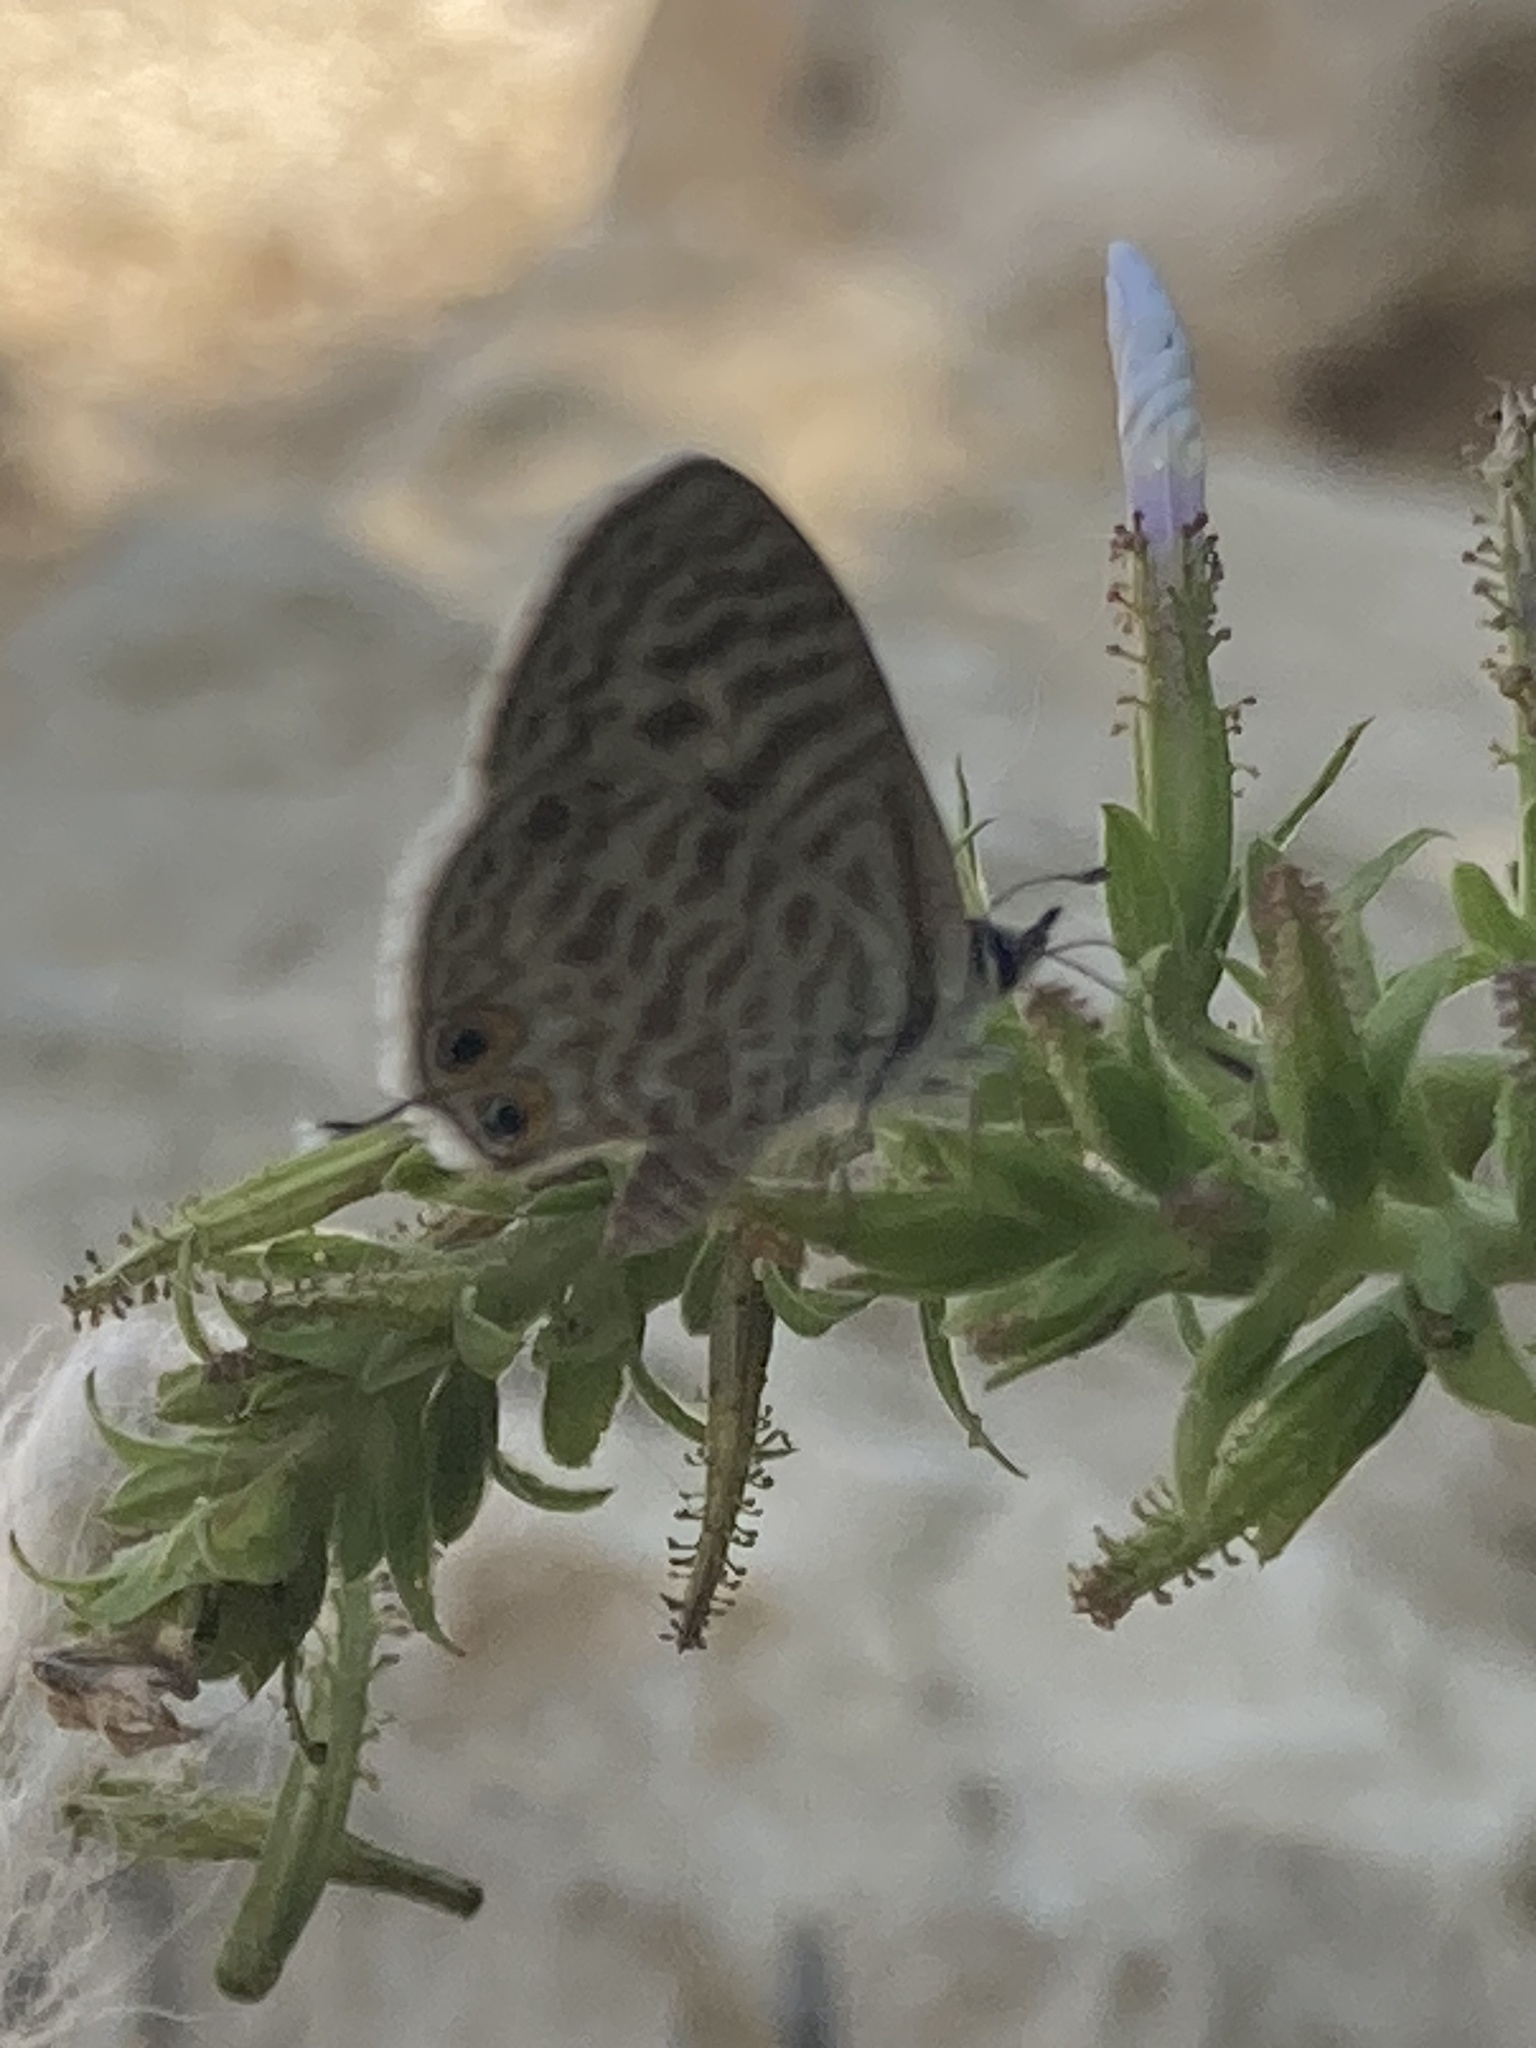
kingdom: Animalia
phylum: Arthropoda
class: Insecta
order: Lepidoptera
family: Lycaenidae
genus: Leptotes
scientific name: Leptotes pirithous
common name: Lang's short-tailed blue
